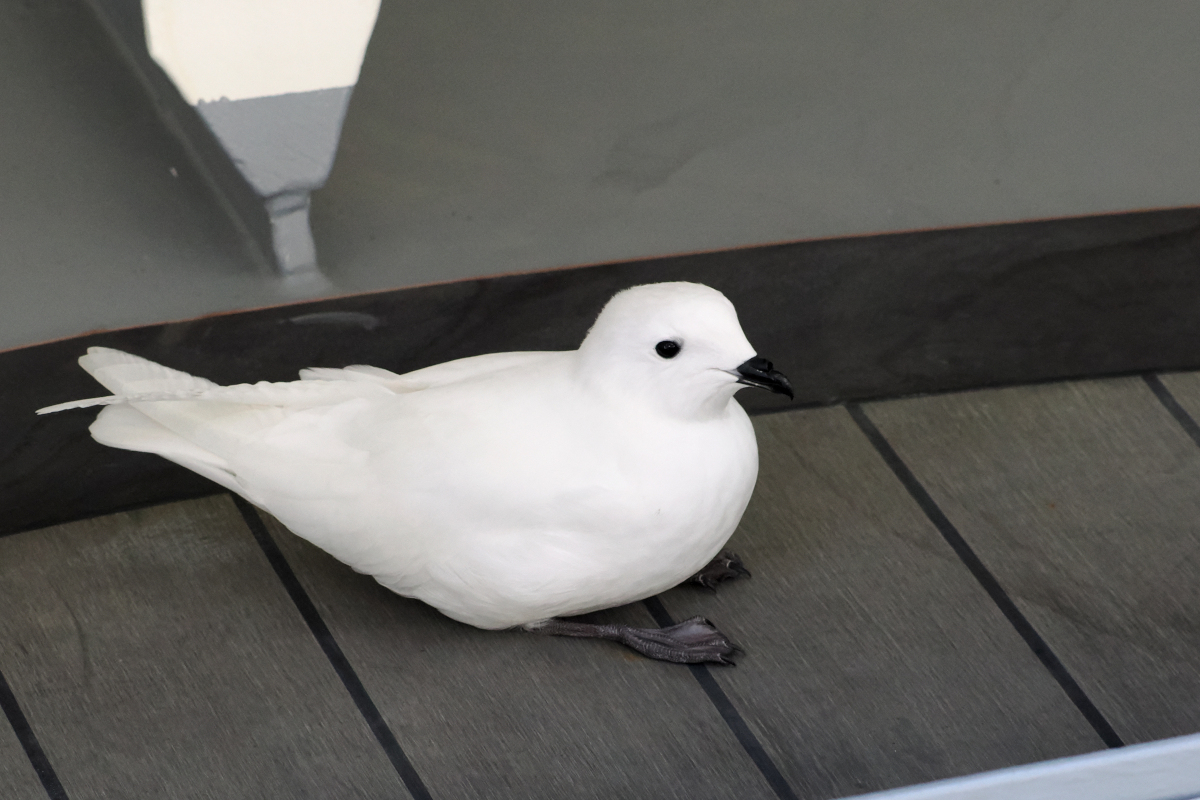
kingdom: Animalia
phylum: Chordata
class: Aves
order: Procellariiformes
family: Procellariidae
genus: Pagodroma
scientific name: Pagodroma nivea
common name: Snow petrel
